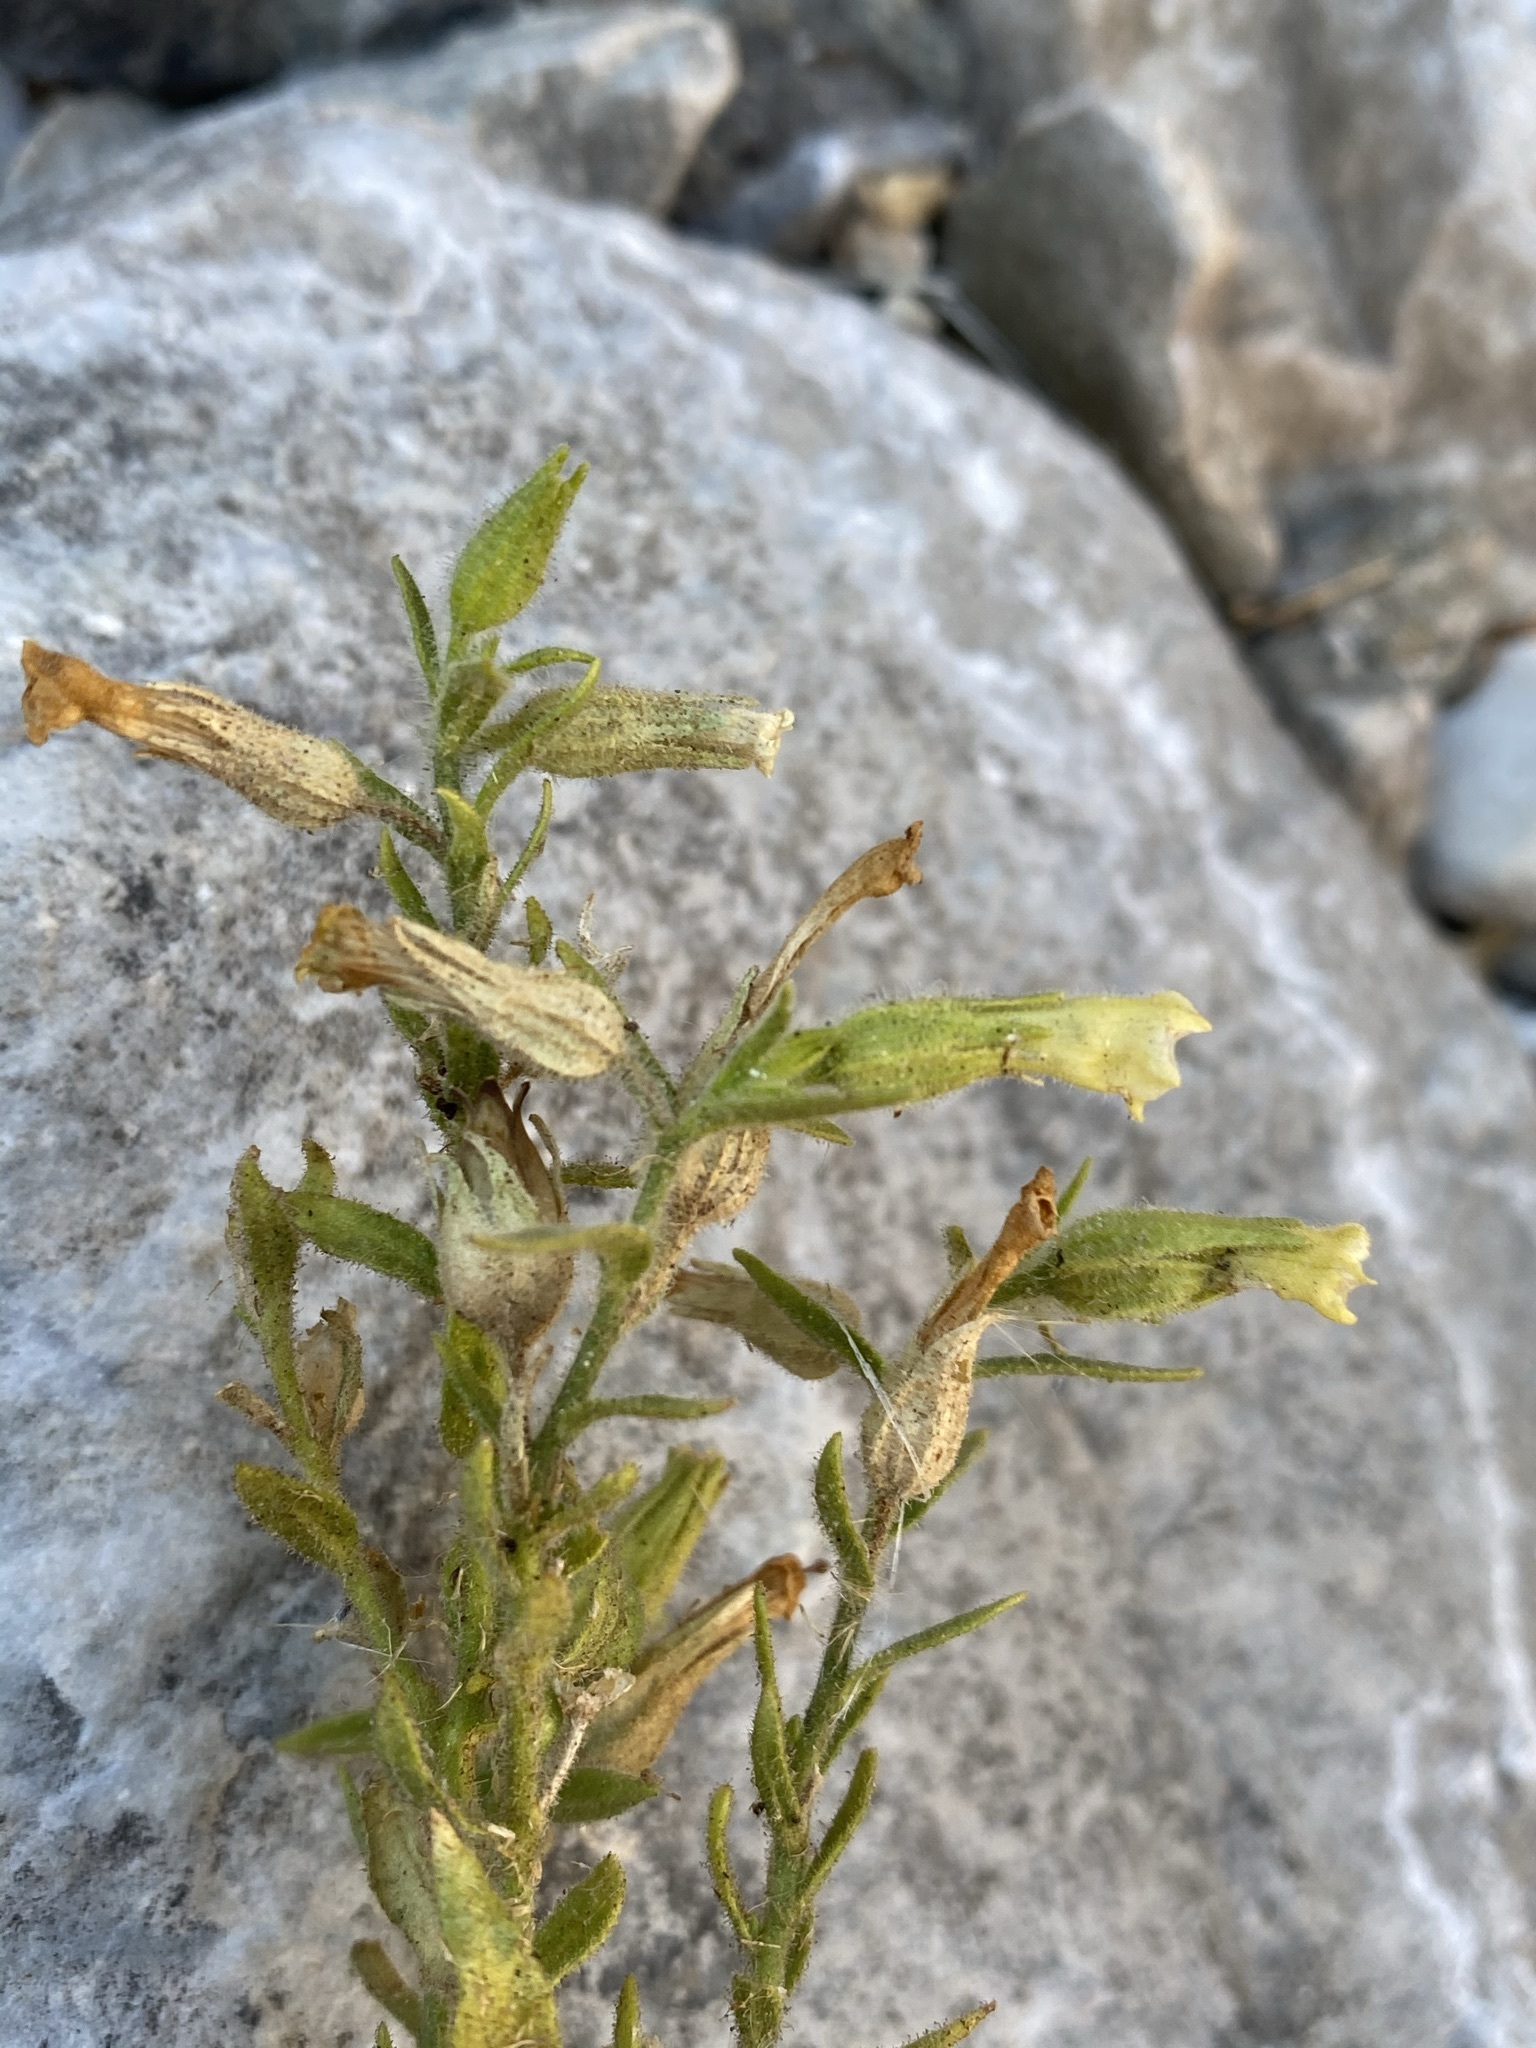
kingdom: Plantae
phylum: Tracheophyta
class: Magnoliopsida
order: Solanales
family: Solanaceae
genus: Nicotiana
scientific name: Nicotiana obtusifolia
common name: Desert tobacco
